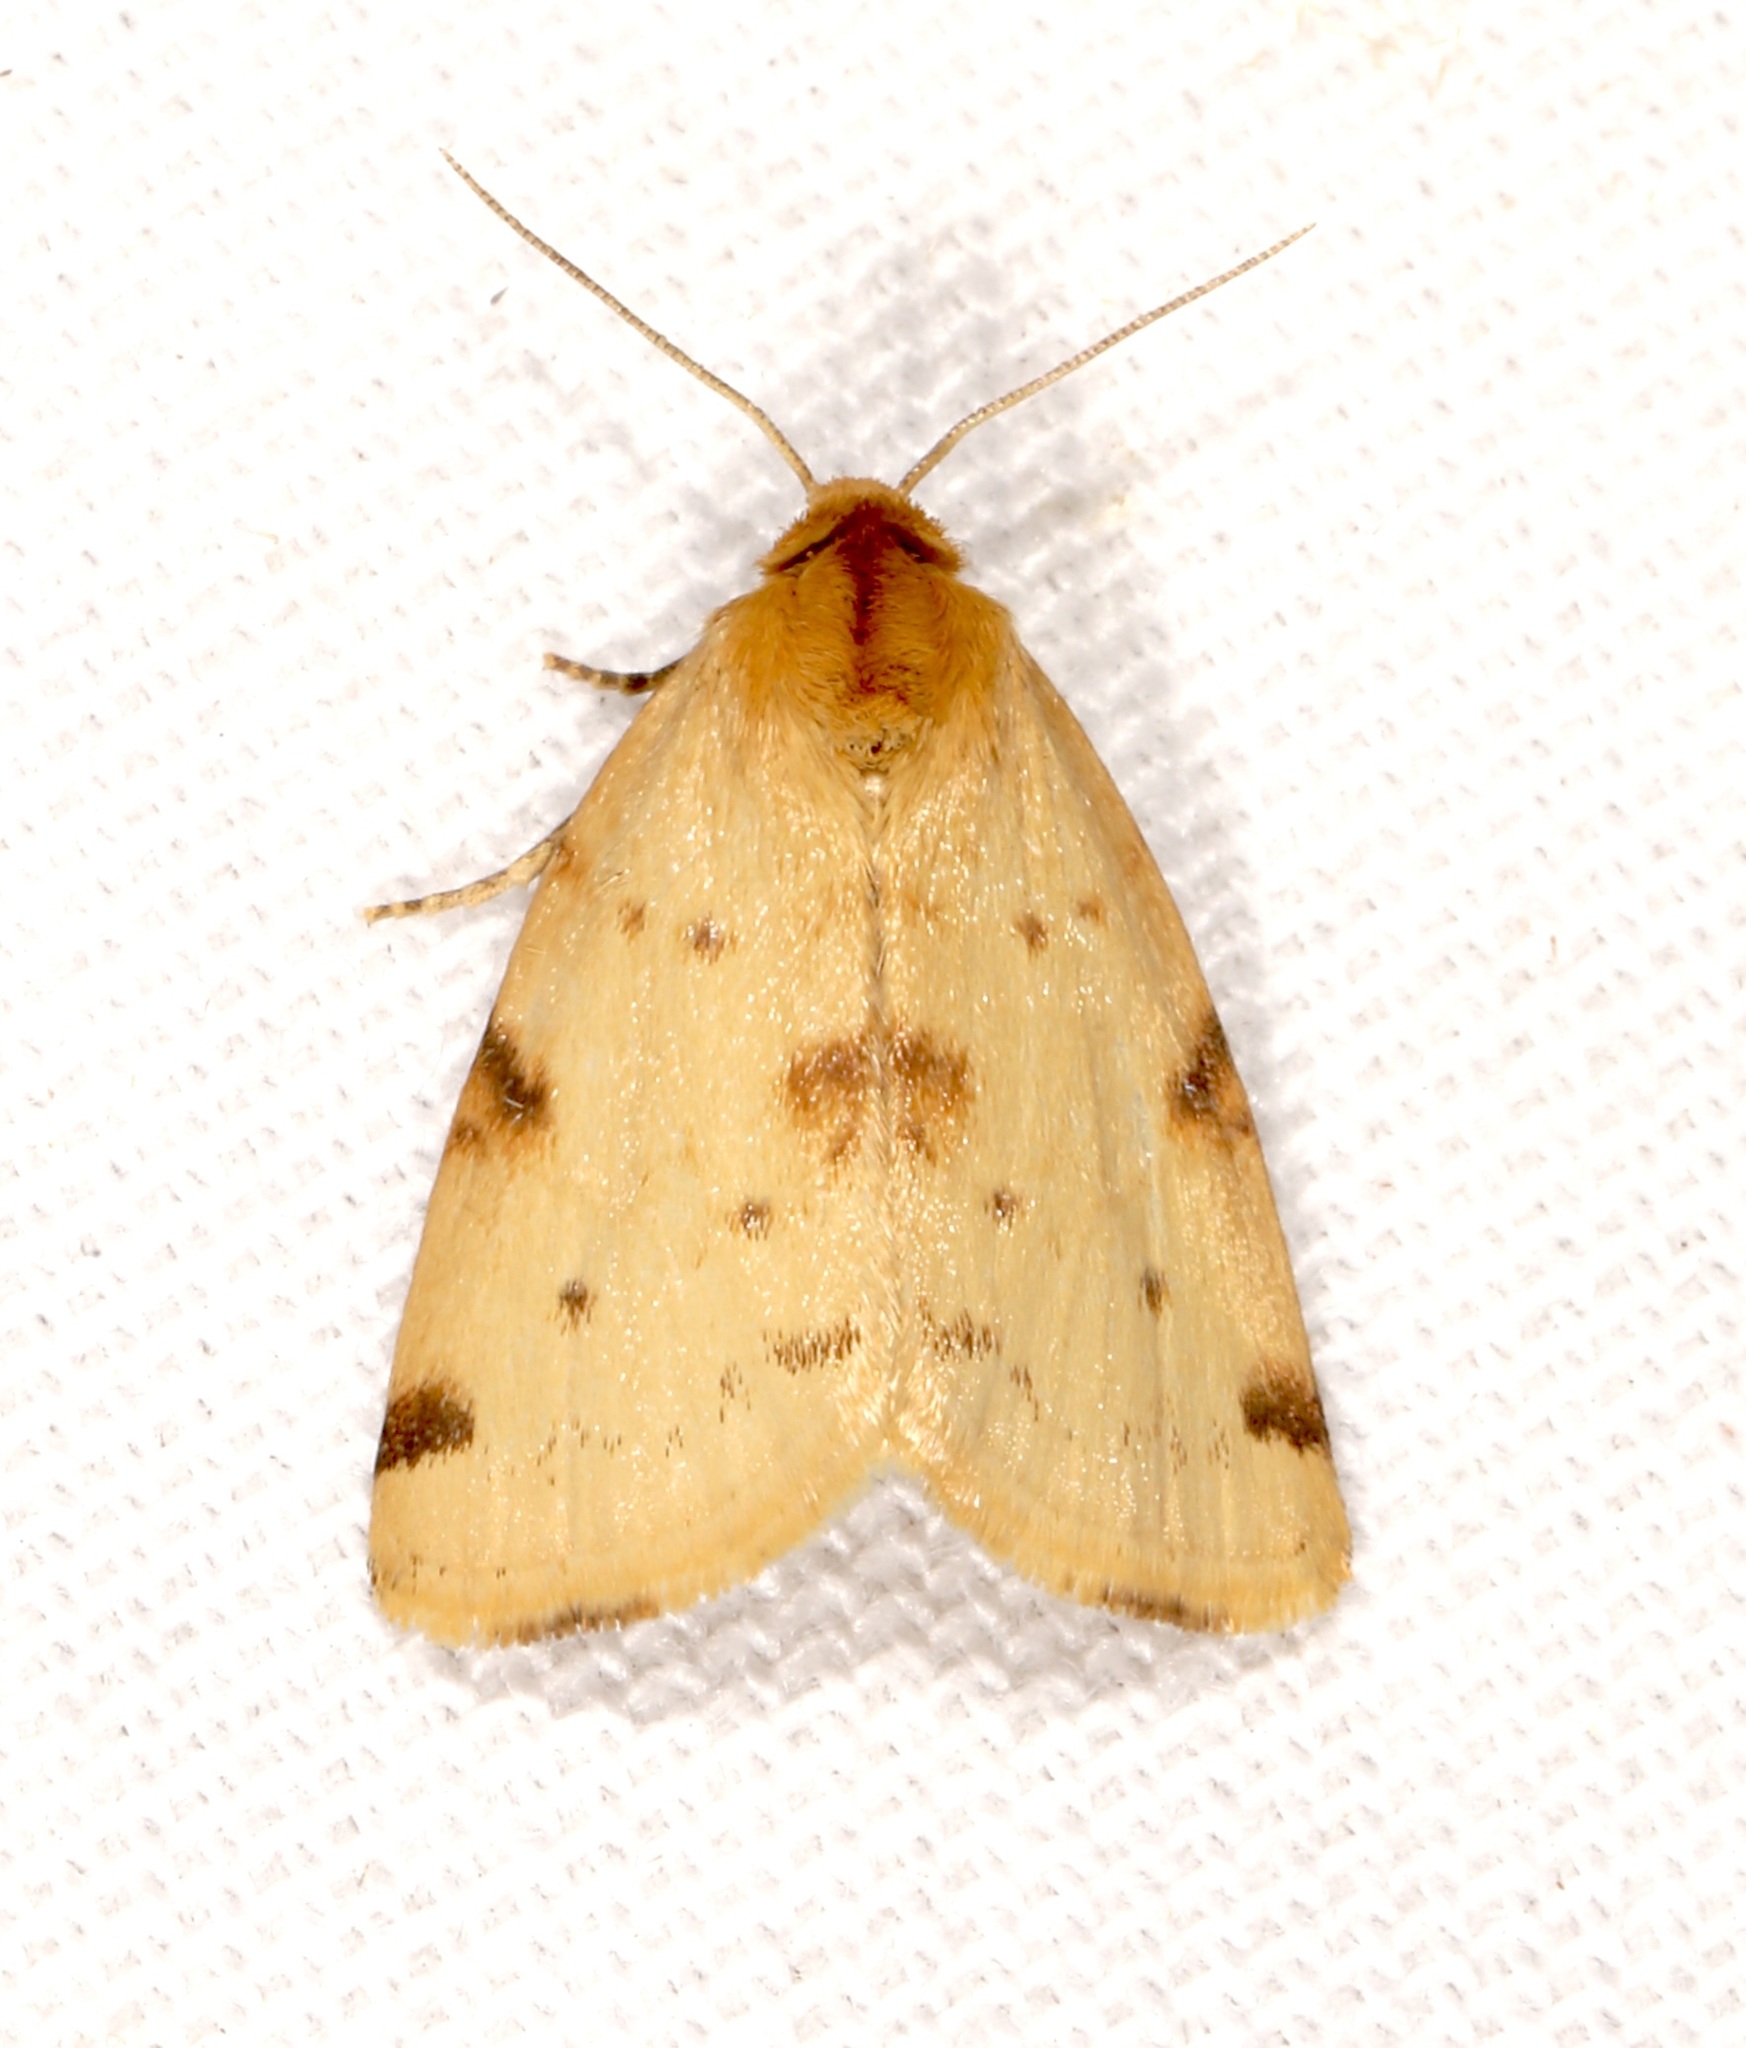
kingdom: Animalia
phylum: Arthropoda
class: Insecta
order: Lepidoptera
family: Noctuidae
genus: Azenia
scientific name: Azenia procida
